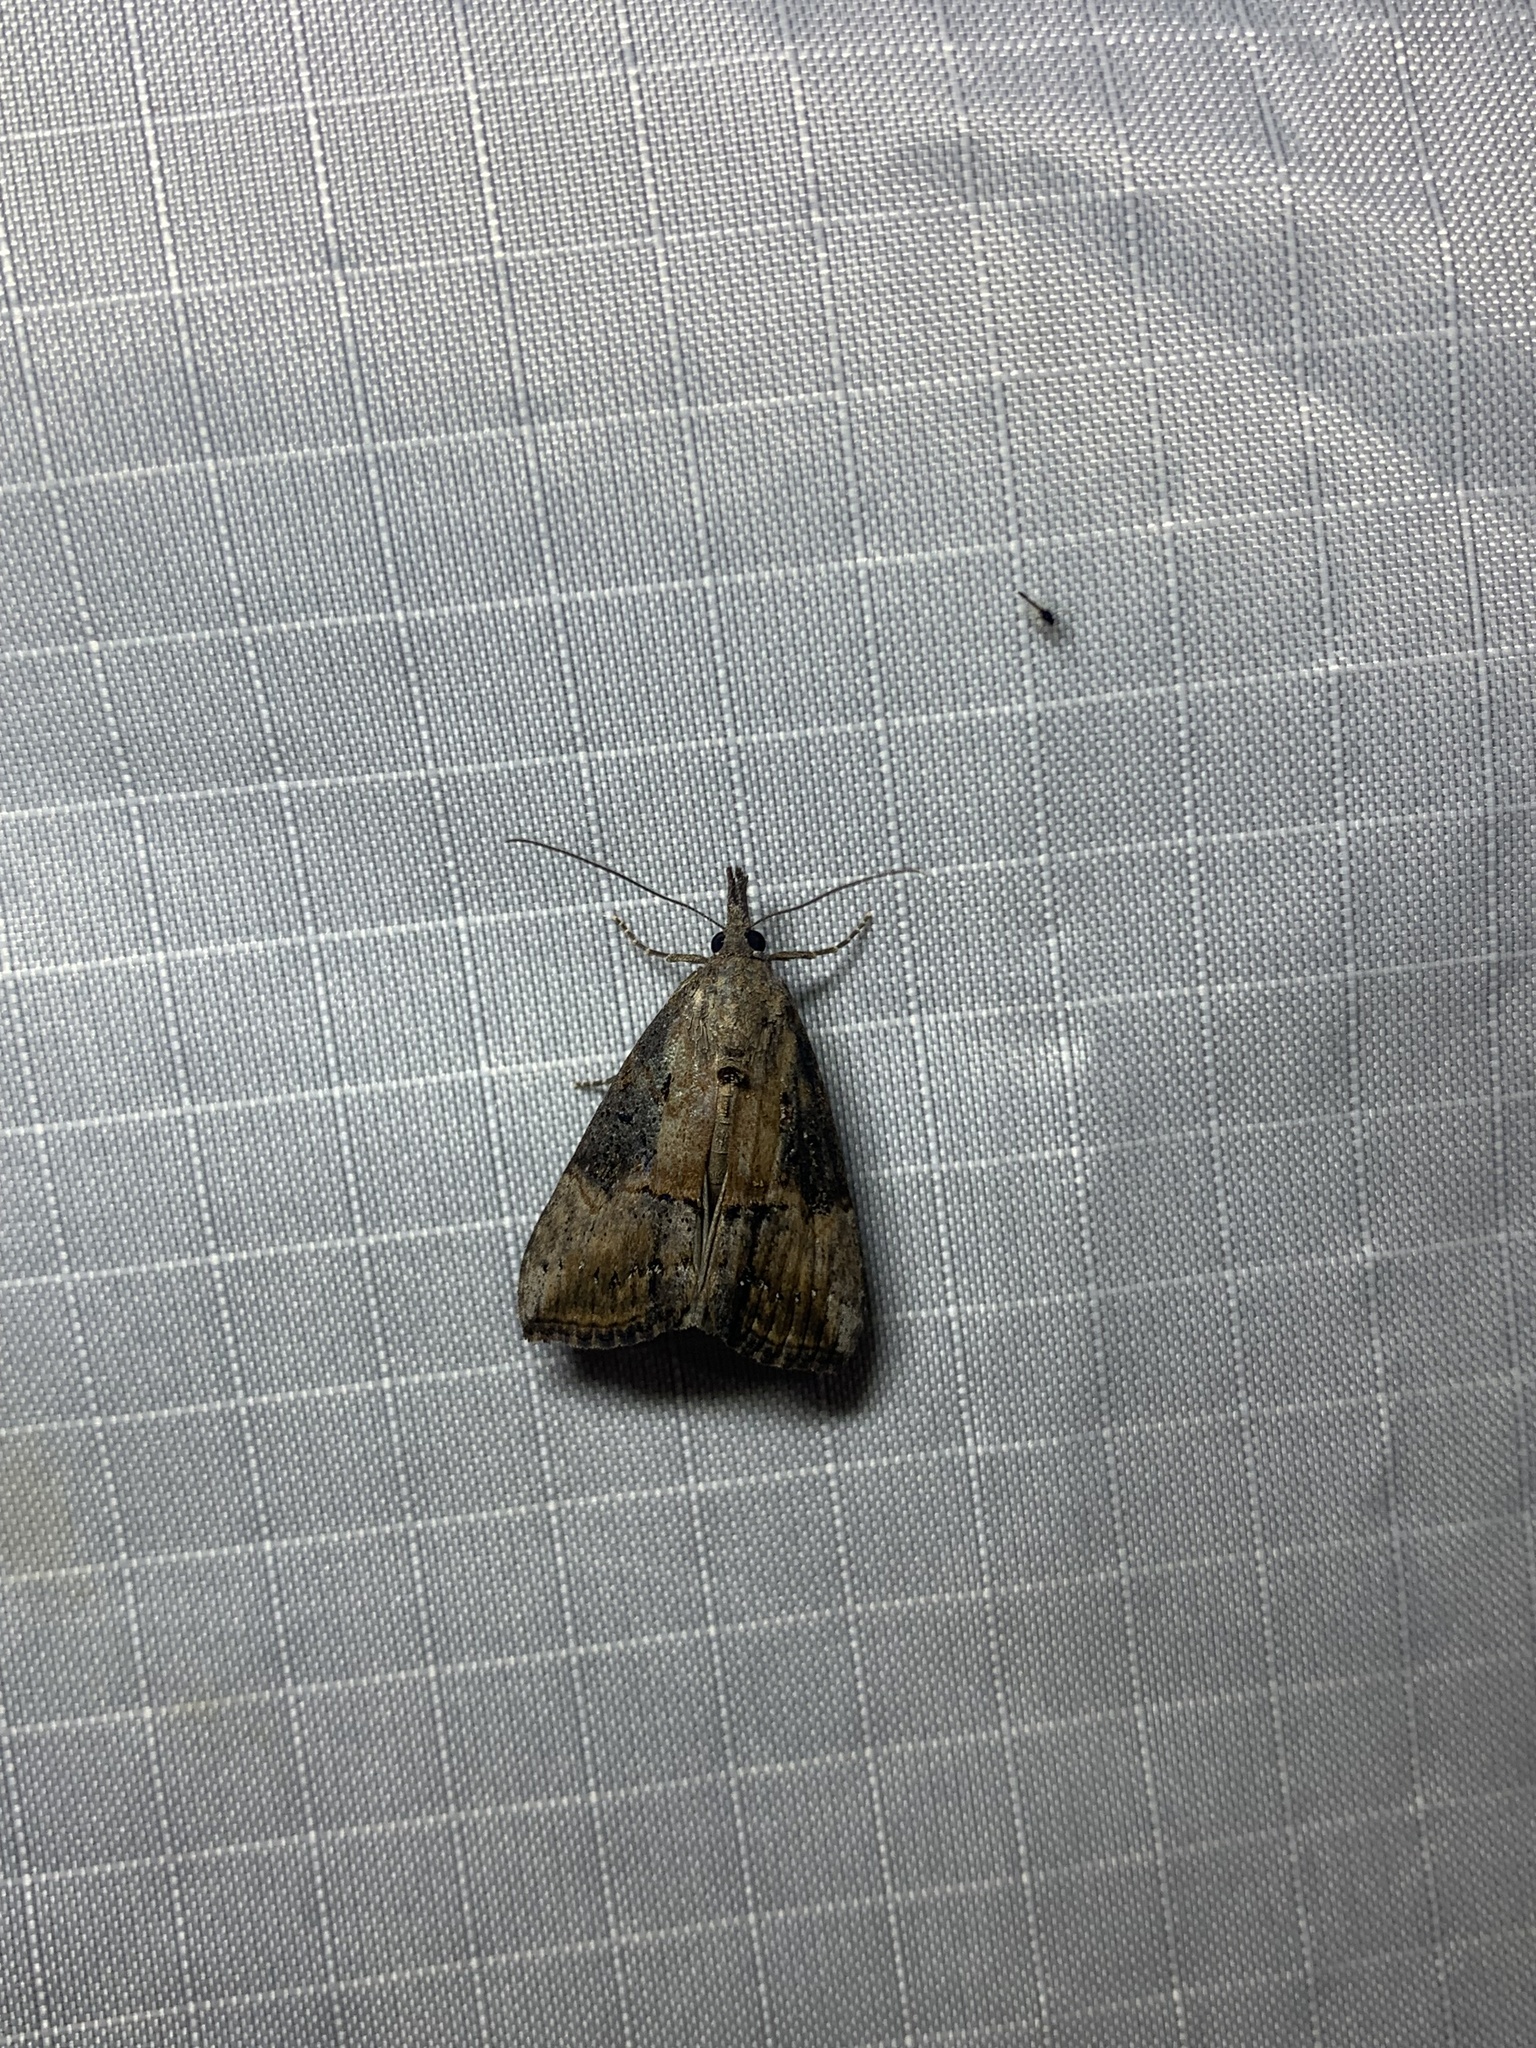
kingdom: Animalia
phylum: Arthropoda
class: Insecta
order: Lepidoptera
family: Erebidae
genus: Hypena
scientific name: Hypena scabra
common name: Green cloverworm
